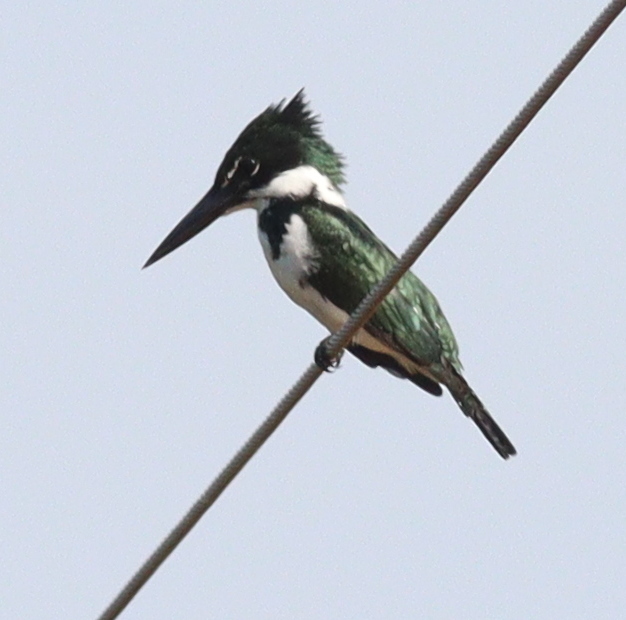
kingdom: Animalia
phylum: Chordata
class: Aves
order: Coraciiformes
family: Alcedinidae
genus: Chloroceryle
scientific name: Chloroceryle amazona
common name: Amazon kingfisher
